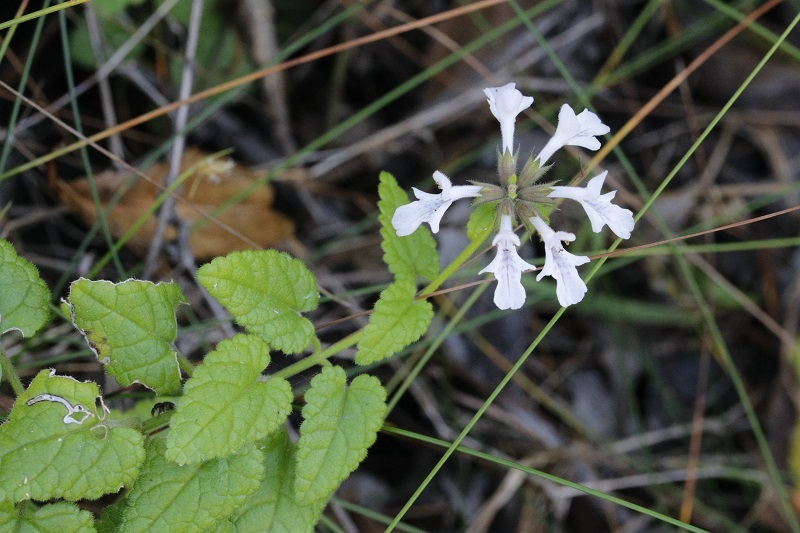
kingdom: Plantae
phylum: Tracheophyta
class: Magnoliopsida
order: Lamiales
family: Lamiaceae
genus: Stachys
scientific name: Stachys aethiopica
